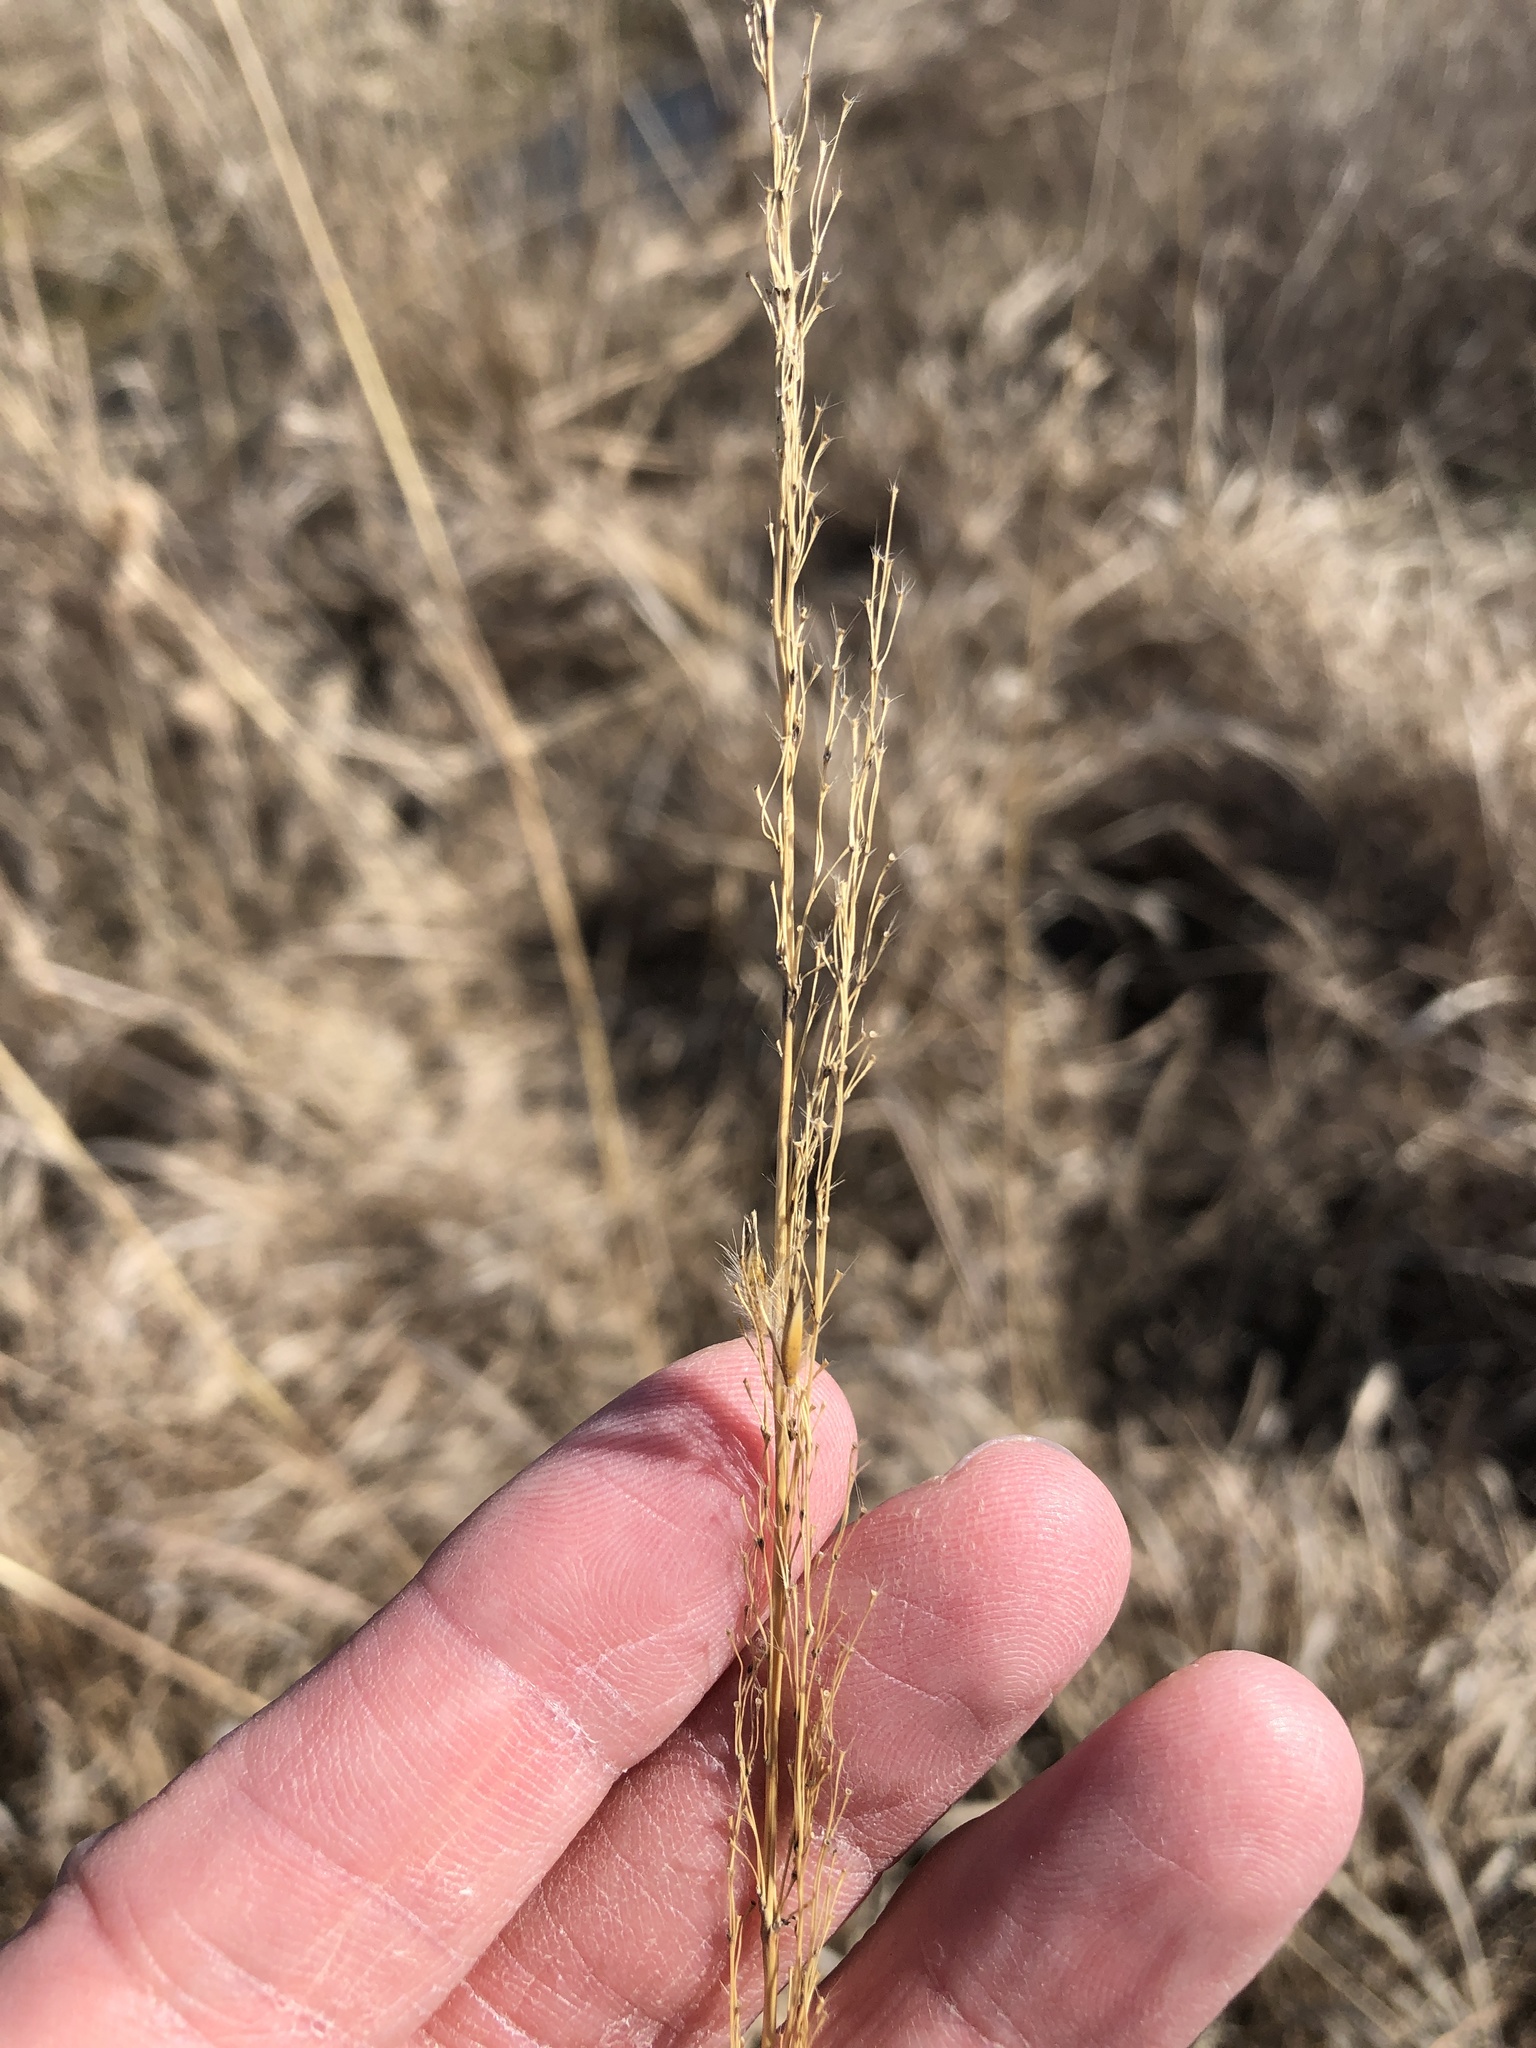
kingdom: Plantae
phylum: Tracheophyta
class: Liliopsida
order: Poales
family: Poaceae
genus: Sorghastrum
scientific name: Sorghastrum nutans
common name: Indian grass
